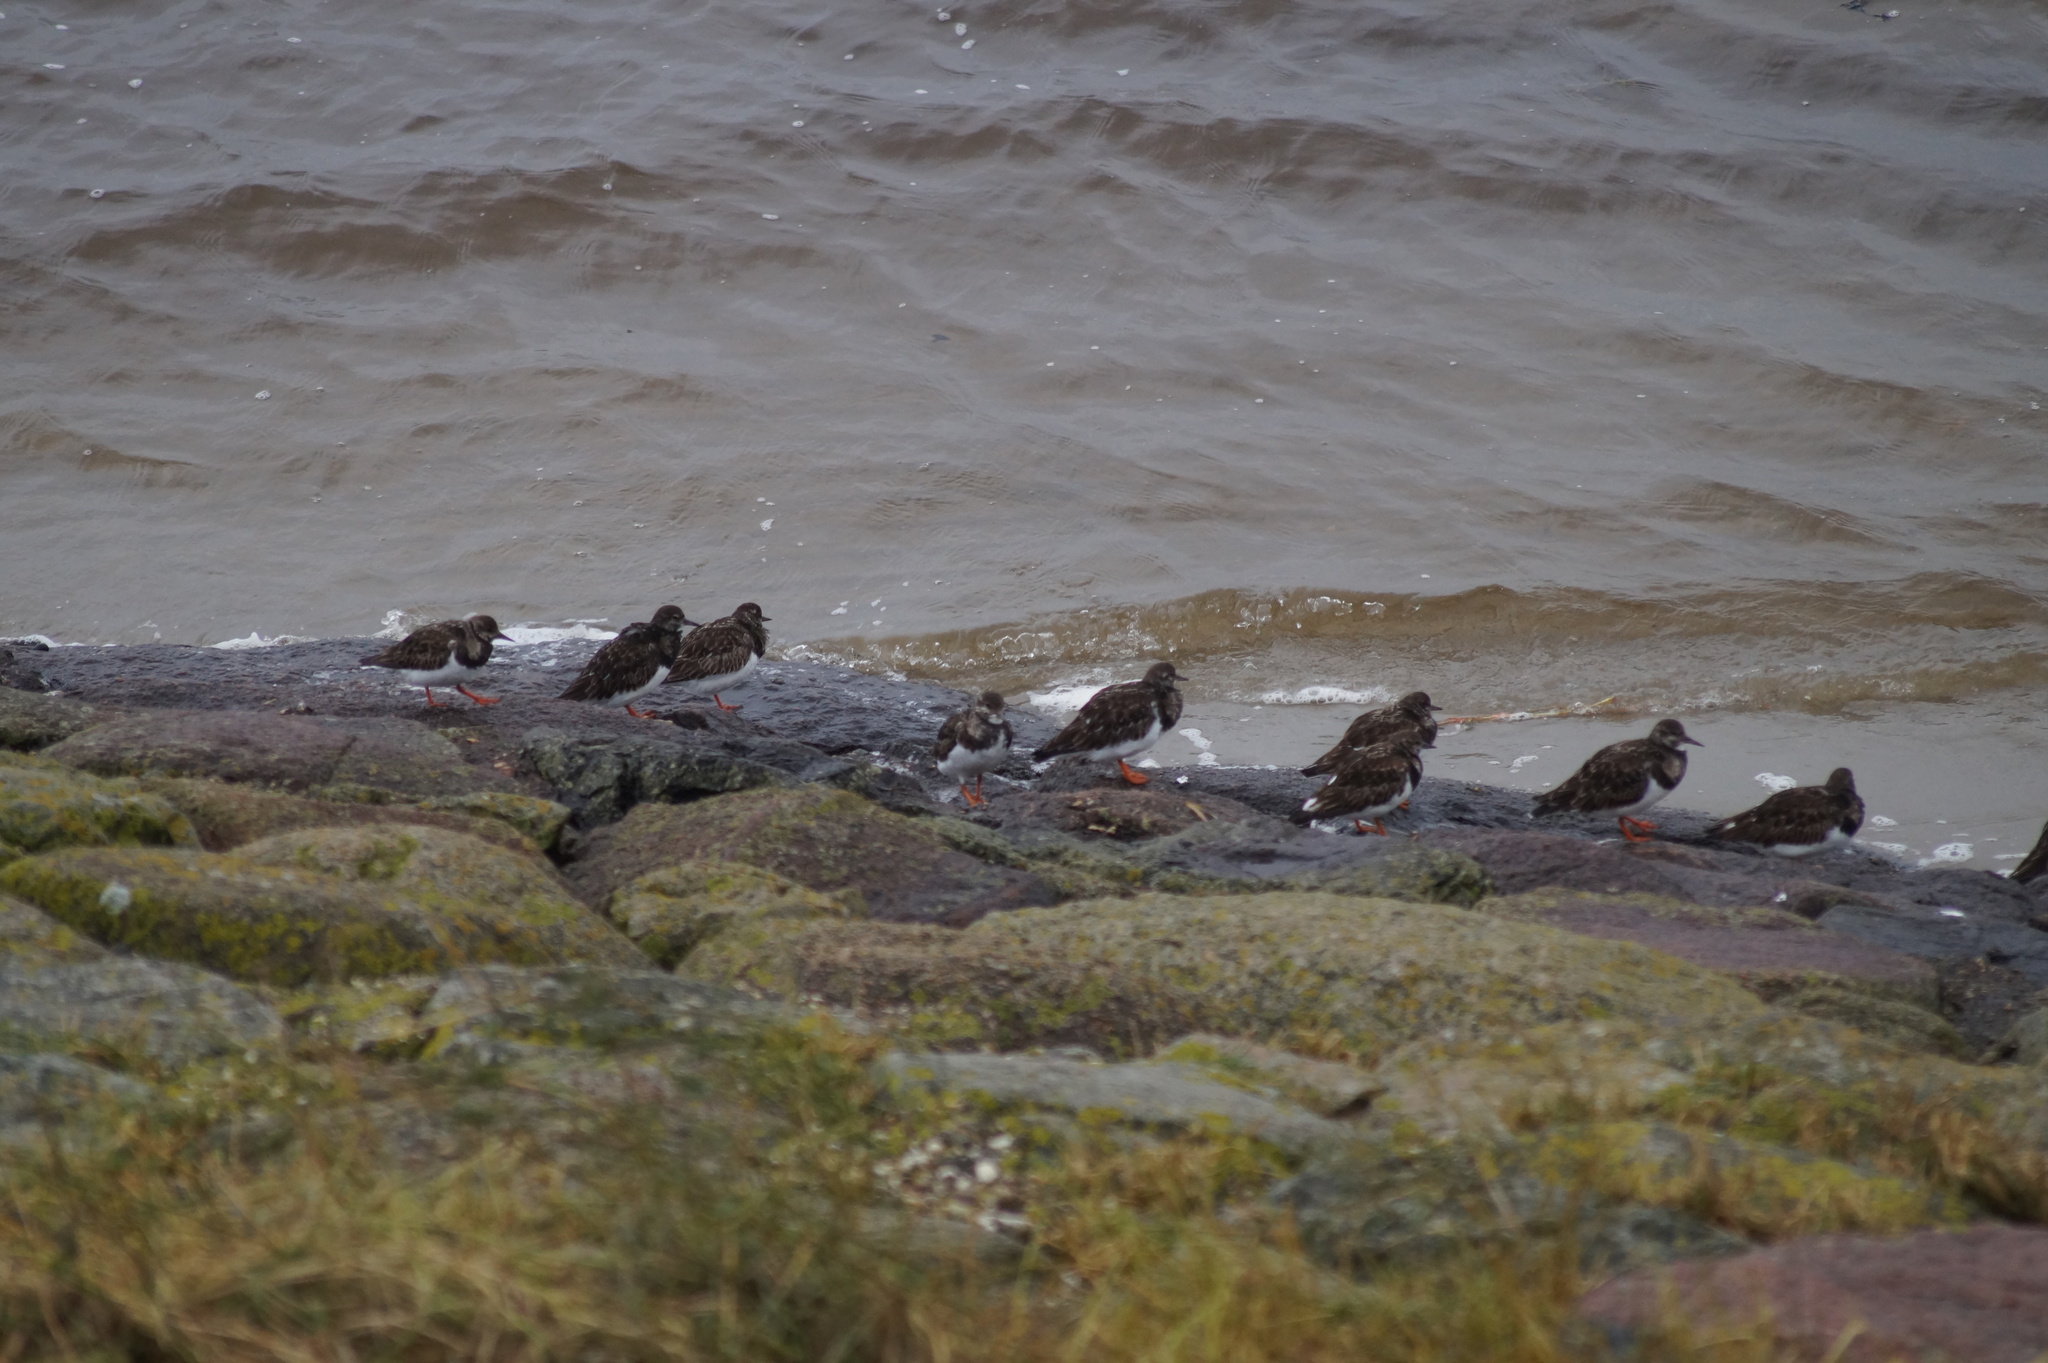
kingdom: Animalia
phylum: Chordata
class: Aves
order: Charadriiformes
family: Scolopacidae
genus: Arenaria
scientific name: Arenaria interpres
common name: Ruddy turnstone
